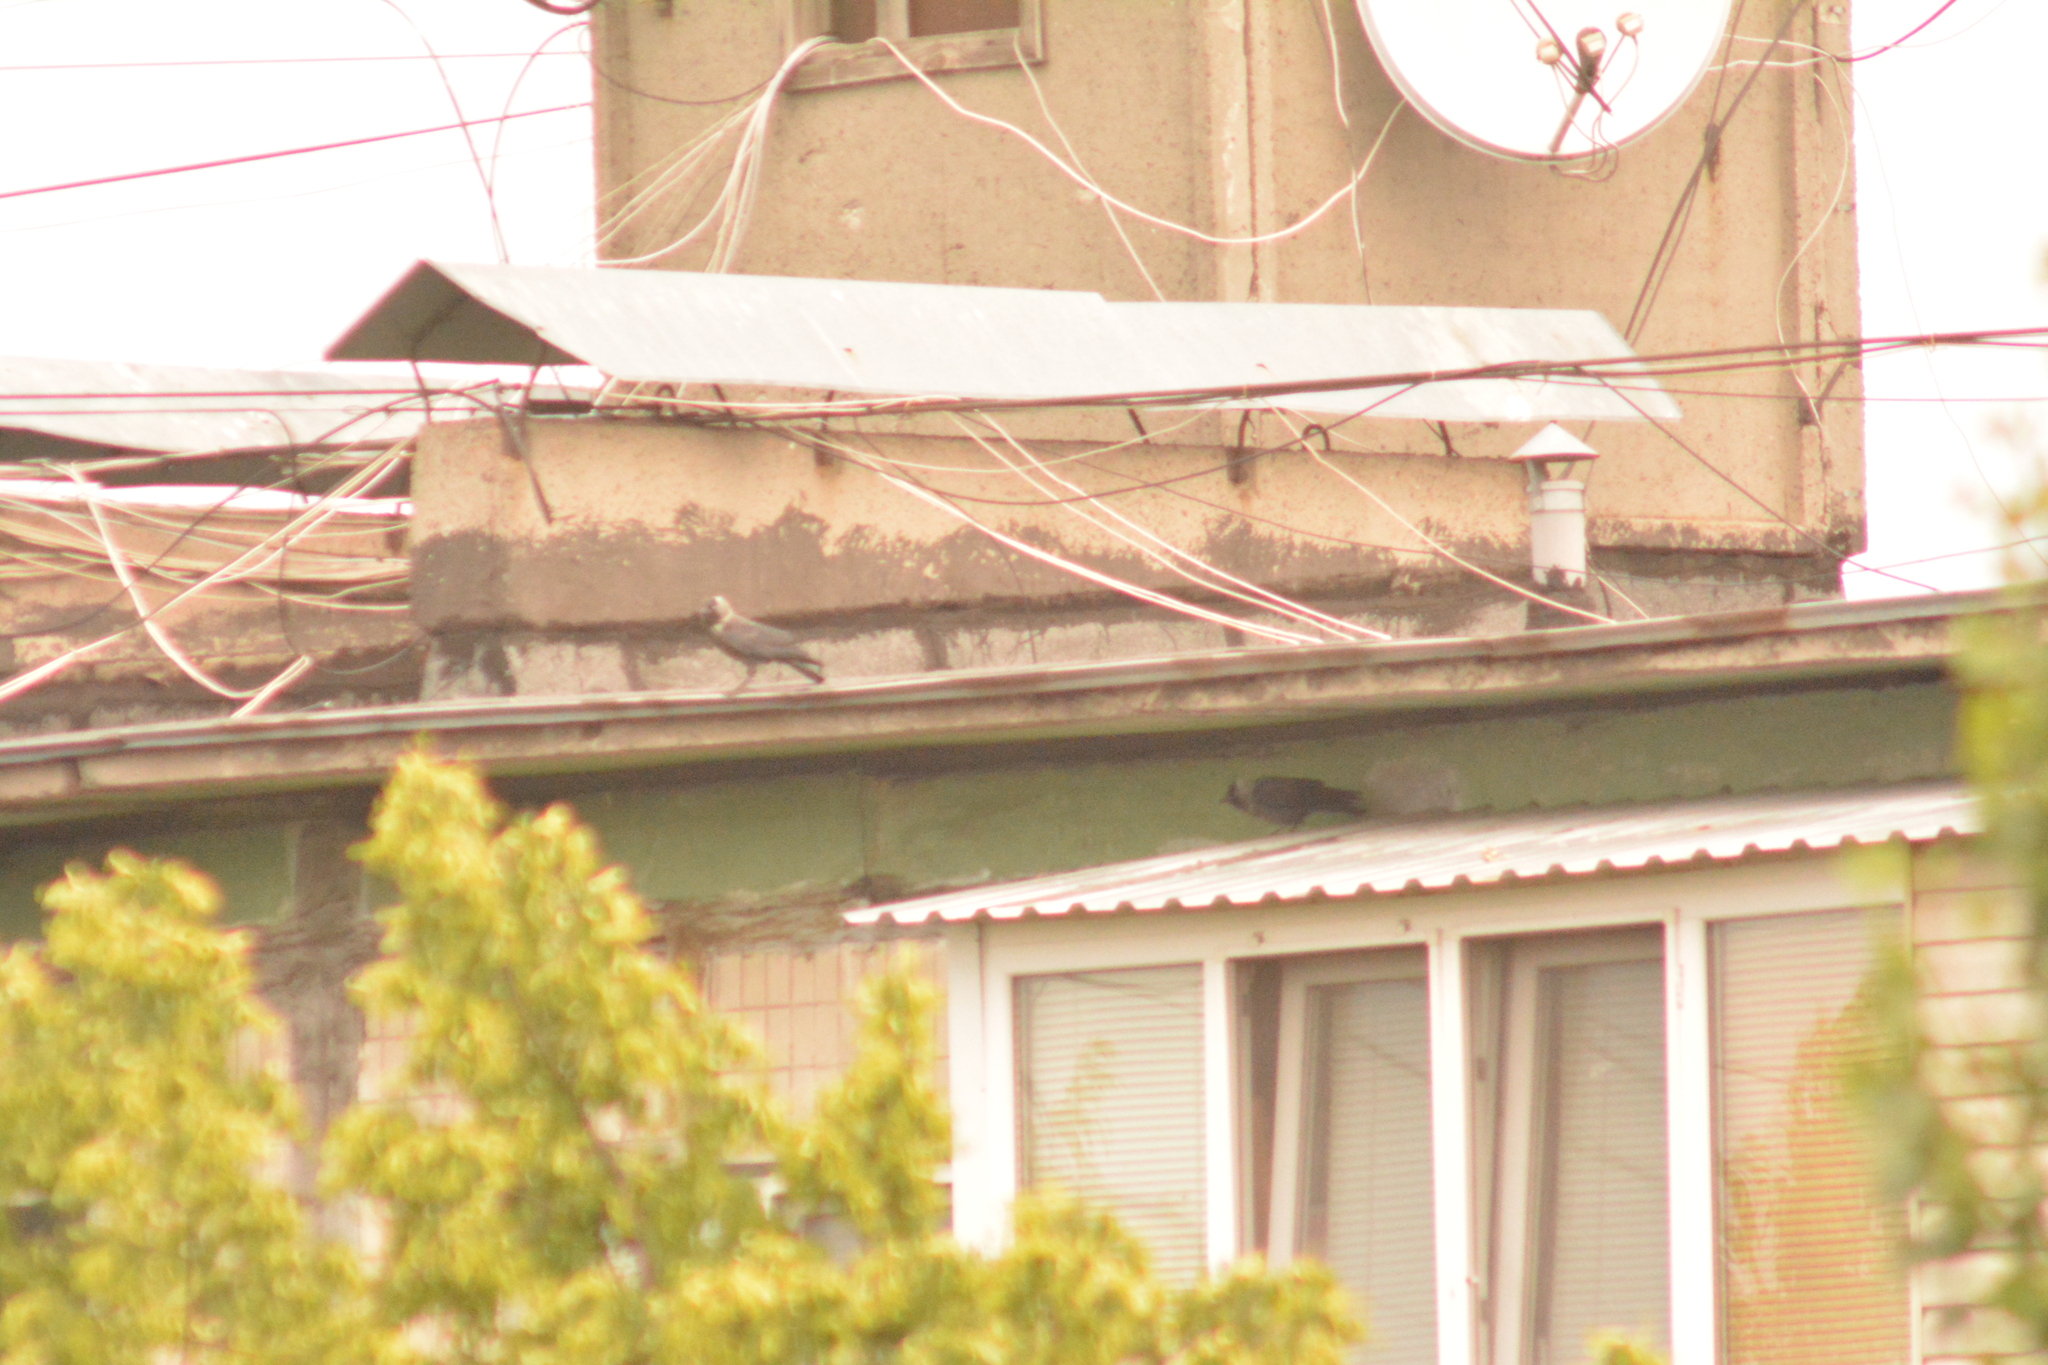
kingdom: Animalia
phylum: Chordata
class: Aves
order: Passeriformes
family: Corvidae
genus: Coloeus
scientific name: Coloeus monedula
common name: Western jackdaw
